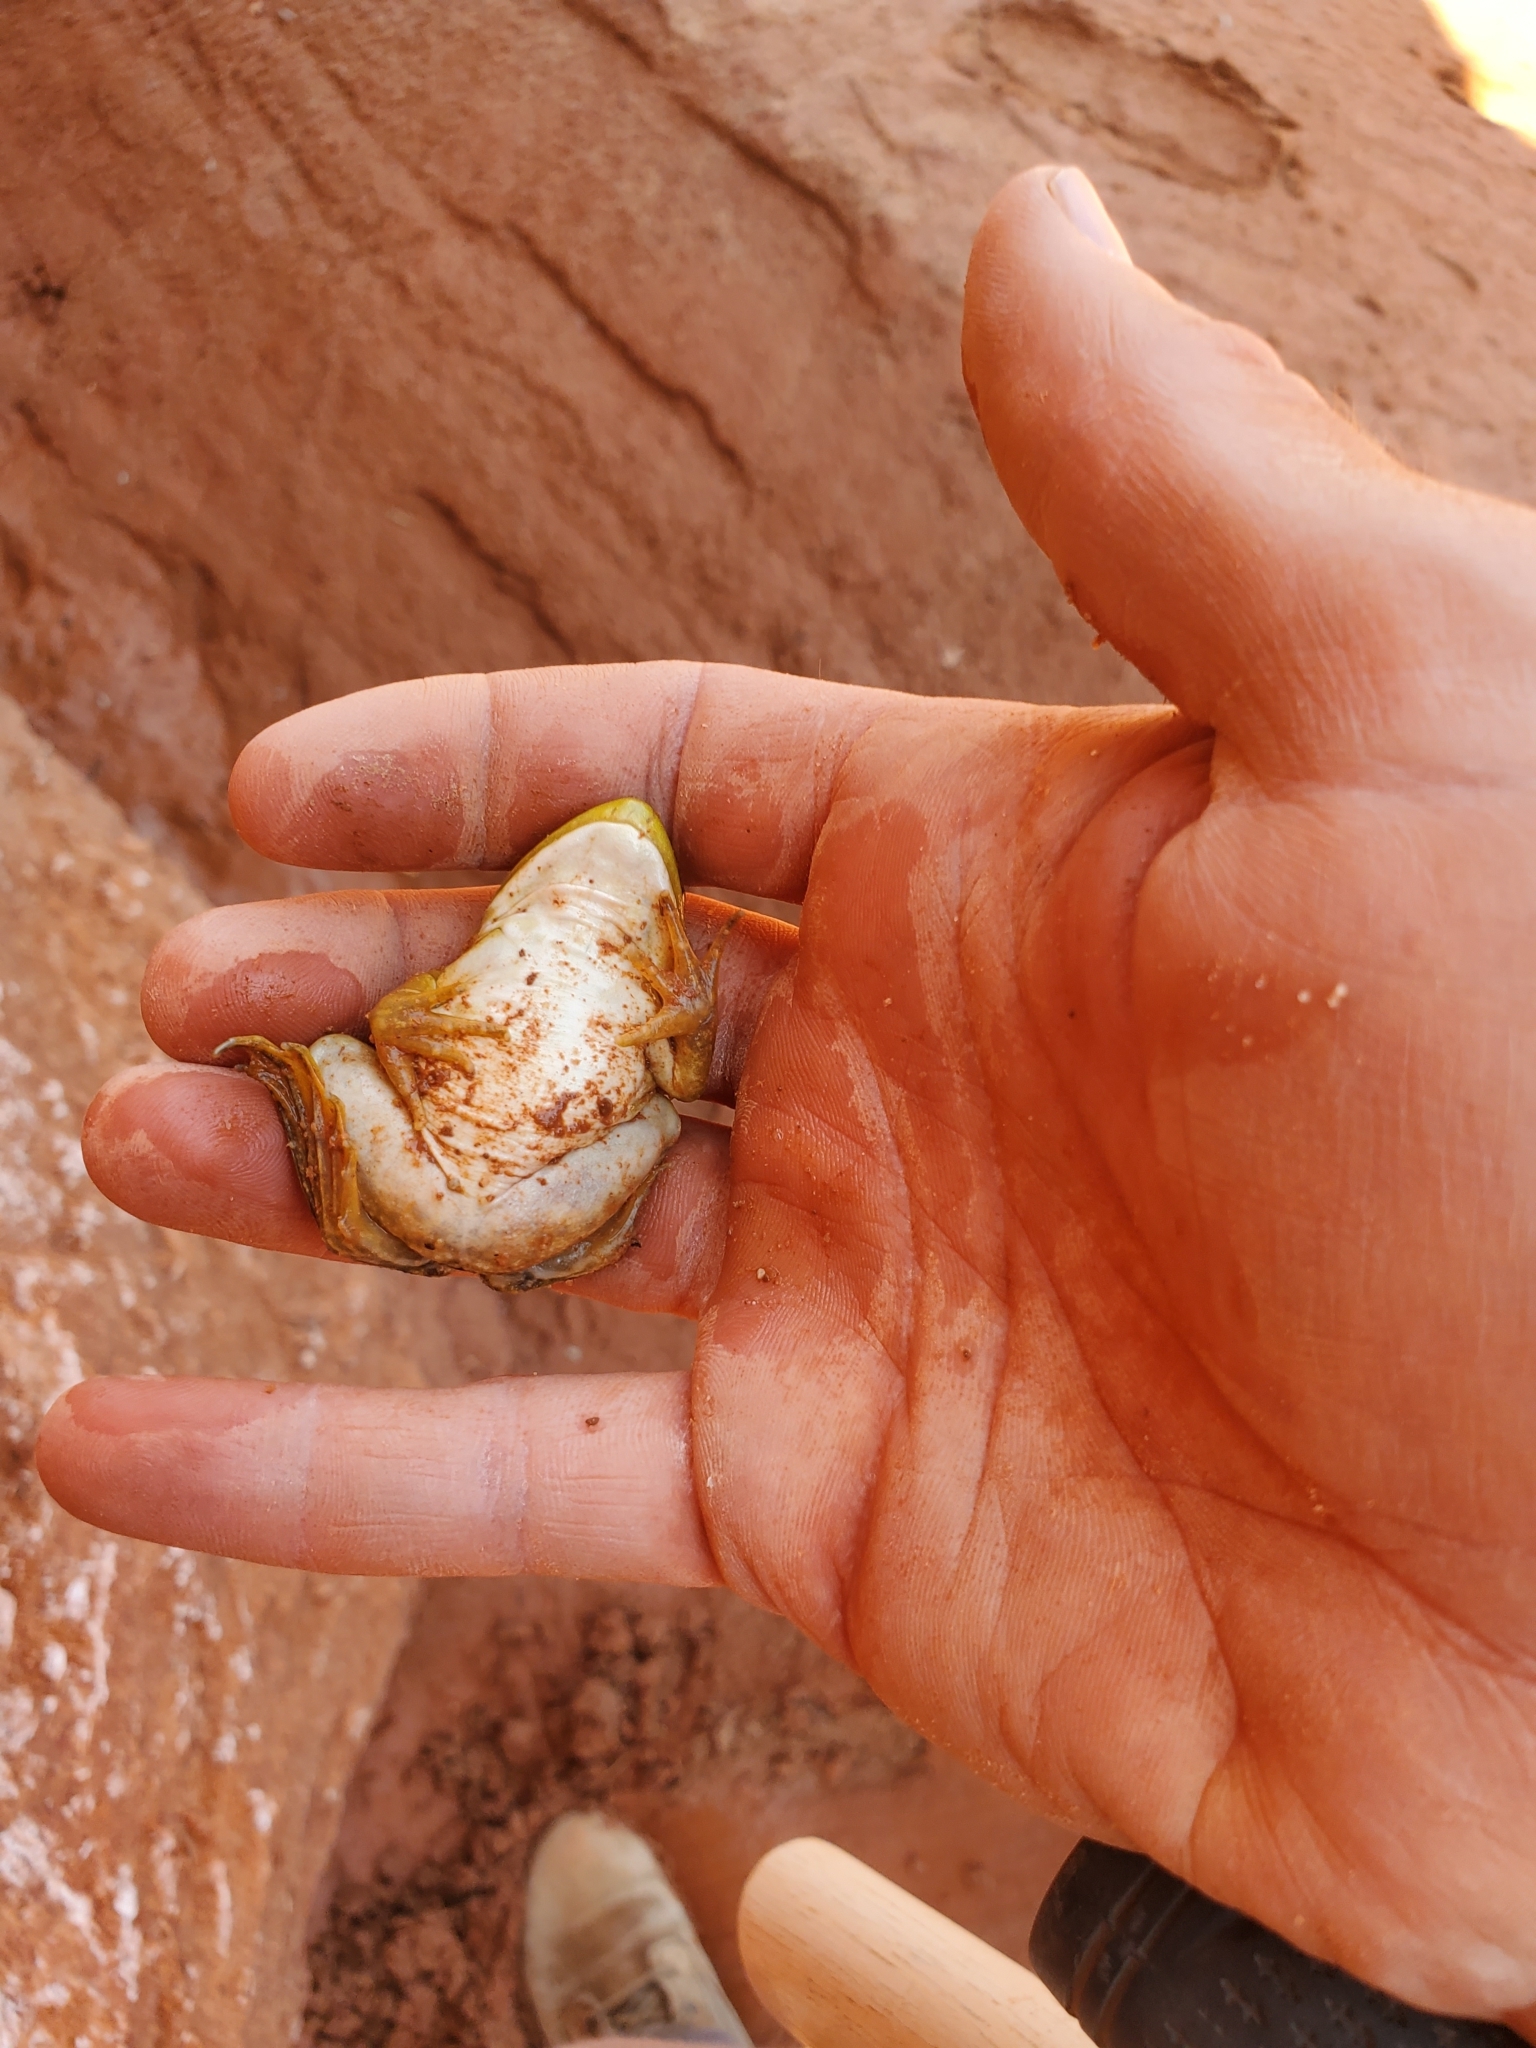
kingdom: Animalia
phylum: Chordata
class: Amphibia
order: Anura
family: Ranidae
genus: Lithobates
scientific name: Lithobates catesbeianus
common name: American bullfrog
